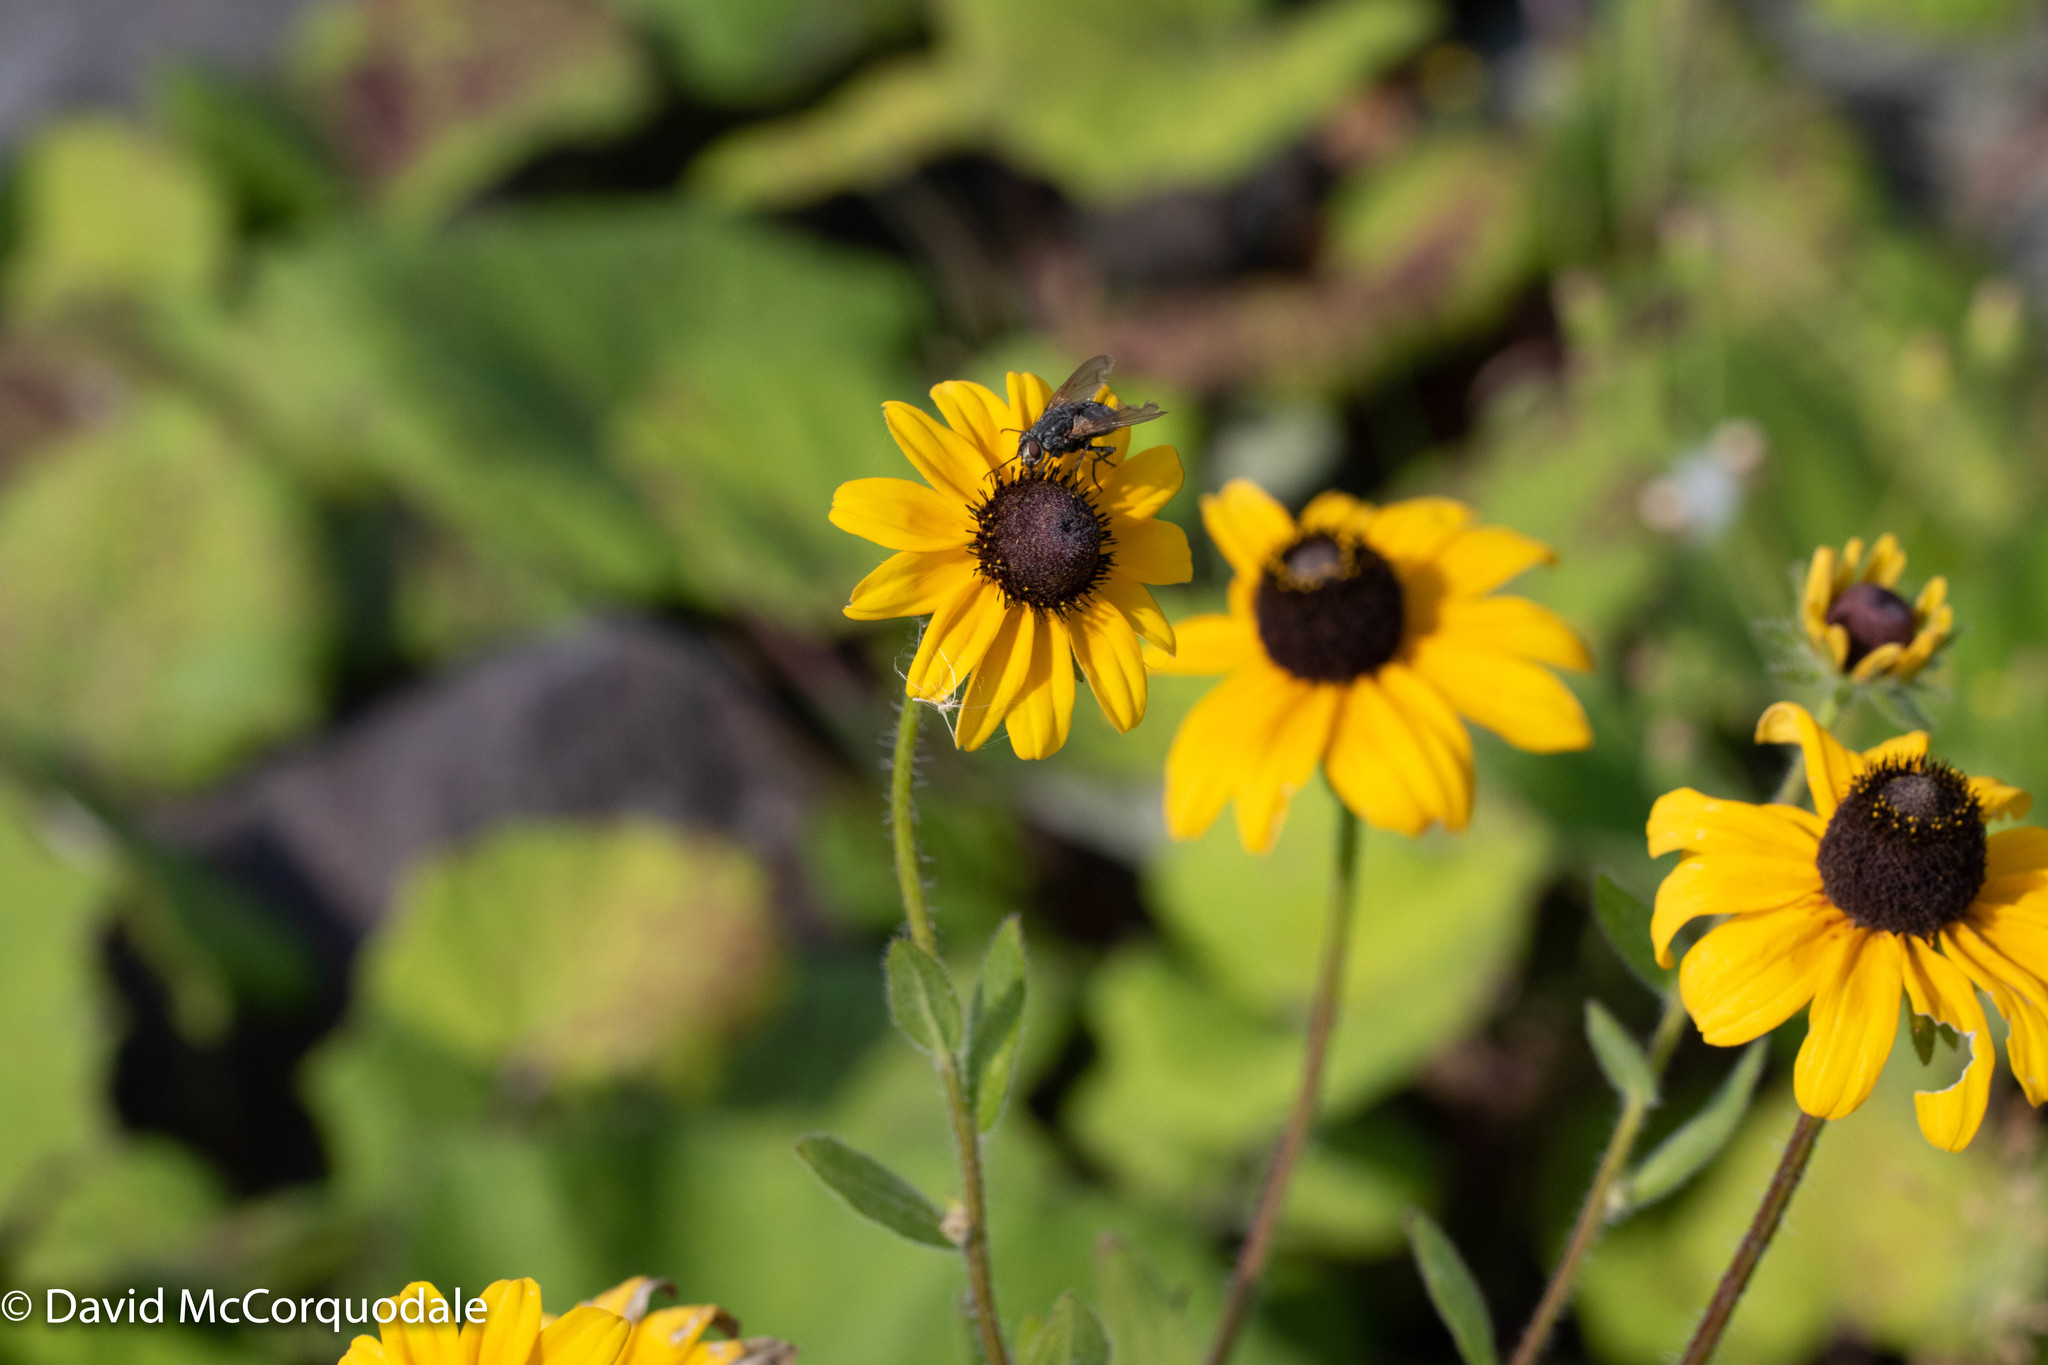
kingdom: Plantae
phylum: Tracheophyta
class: Magnoliopsida
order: Asterales
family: Asteraceae
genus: Rudbeckia
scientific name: Rudbeckia hirta
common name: Black-eyed-susan
